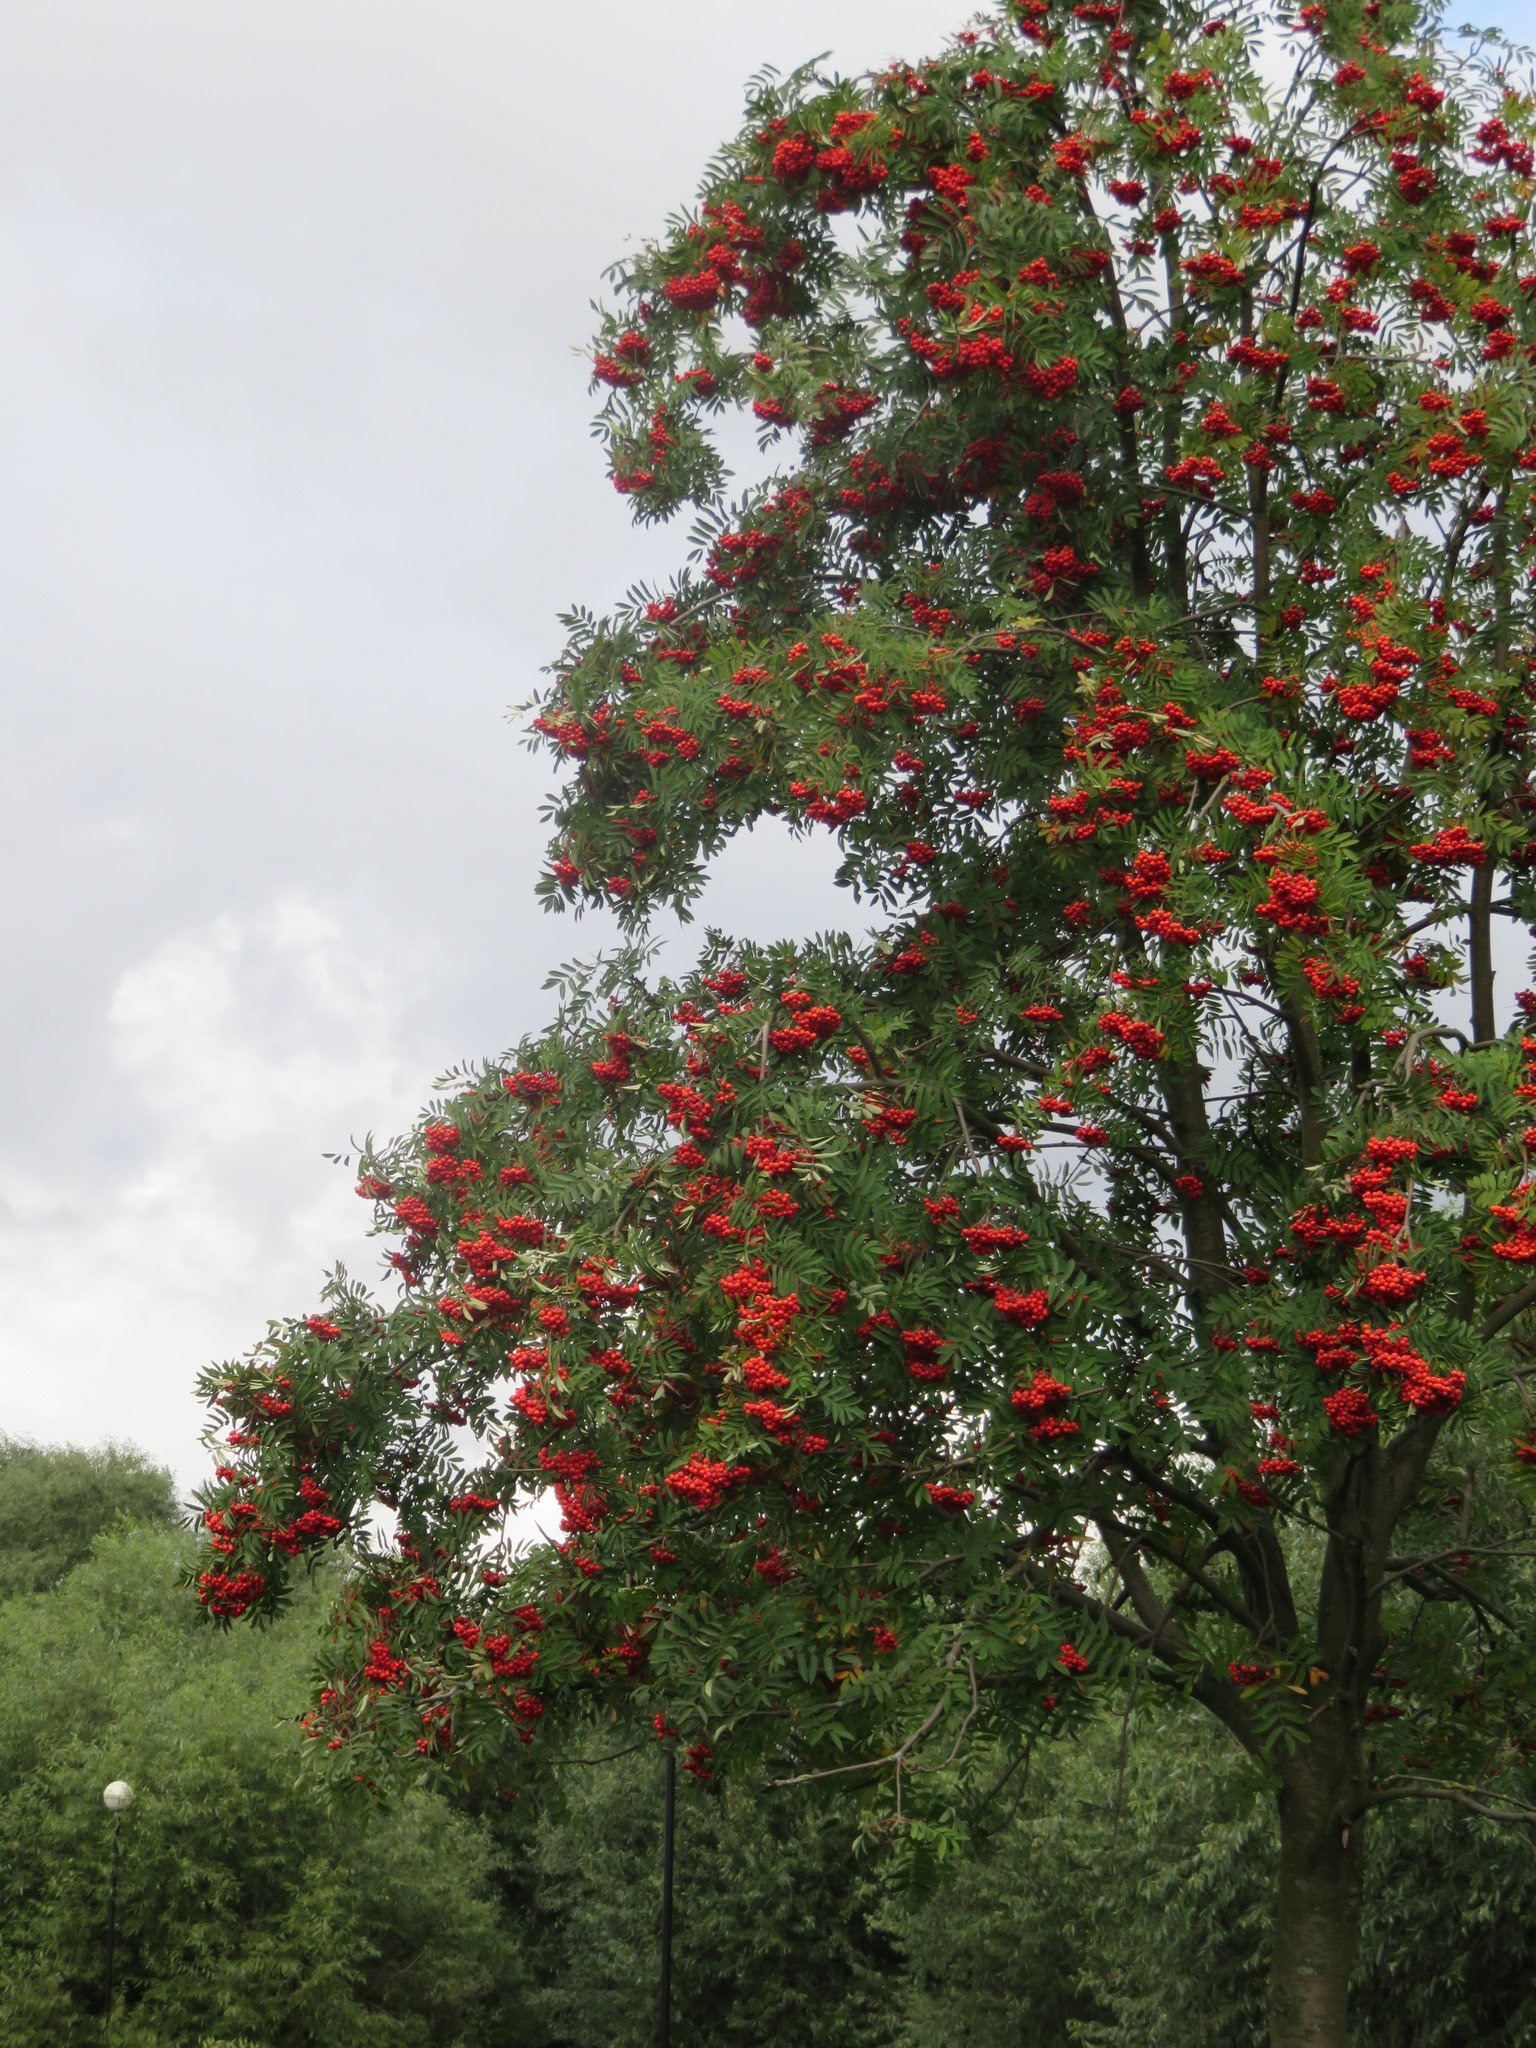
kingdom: Plantae
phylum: Tracheophyta
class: Magnoliopsida
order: Rosales
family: Rosaceae
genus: Sorbus
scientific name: Sorbus aucuparia
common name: Rowan
